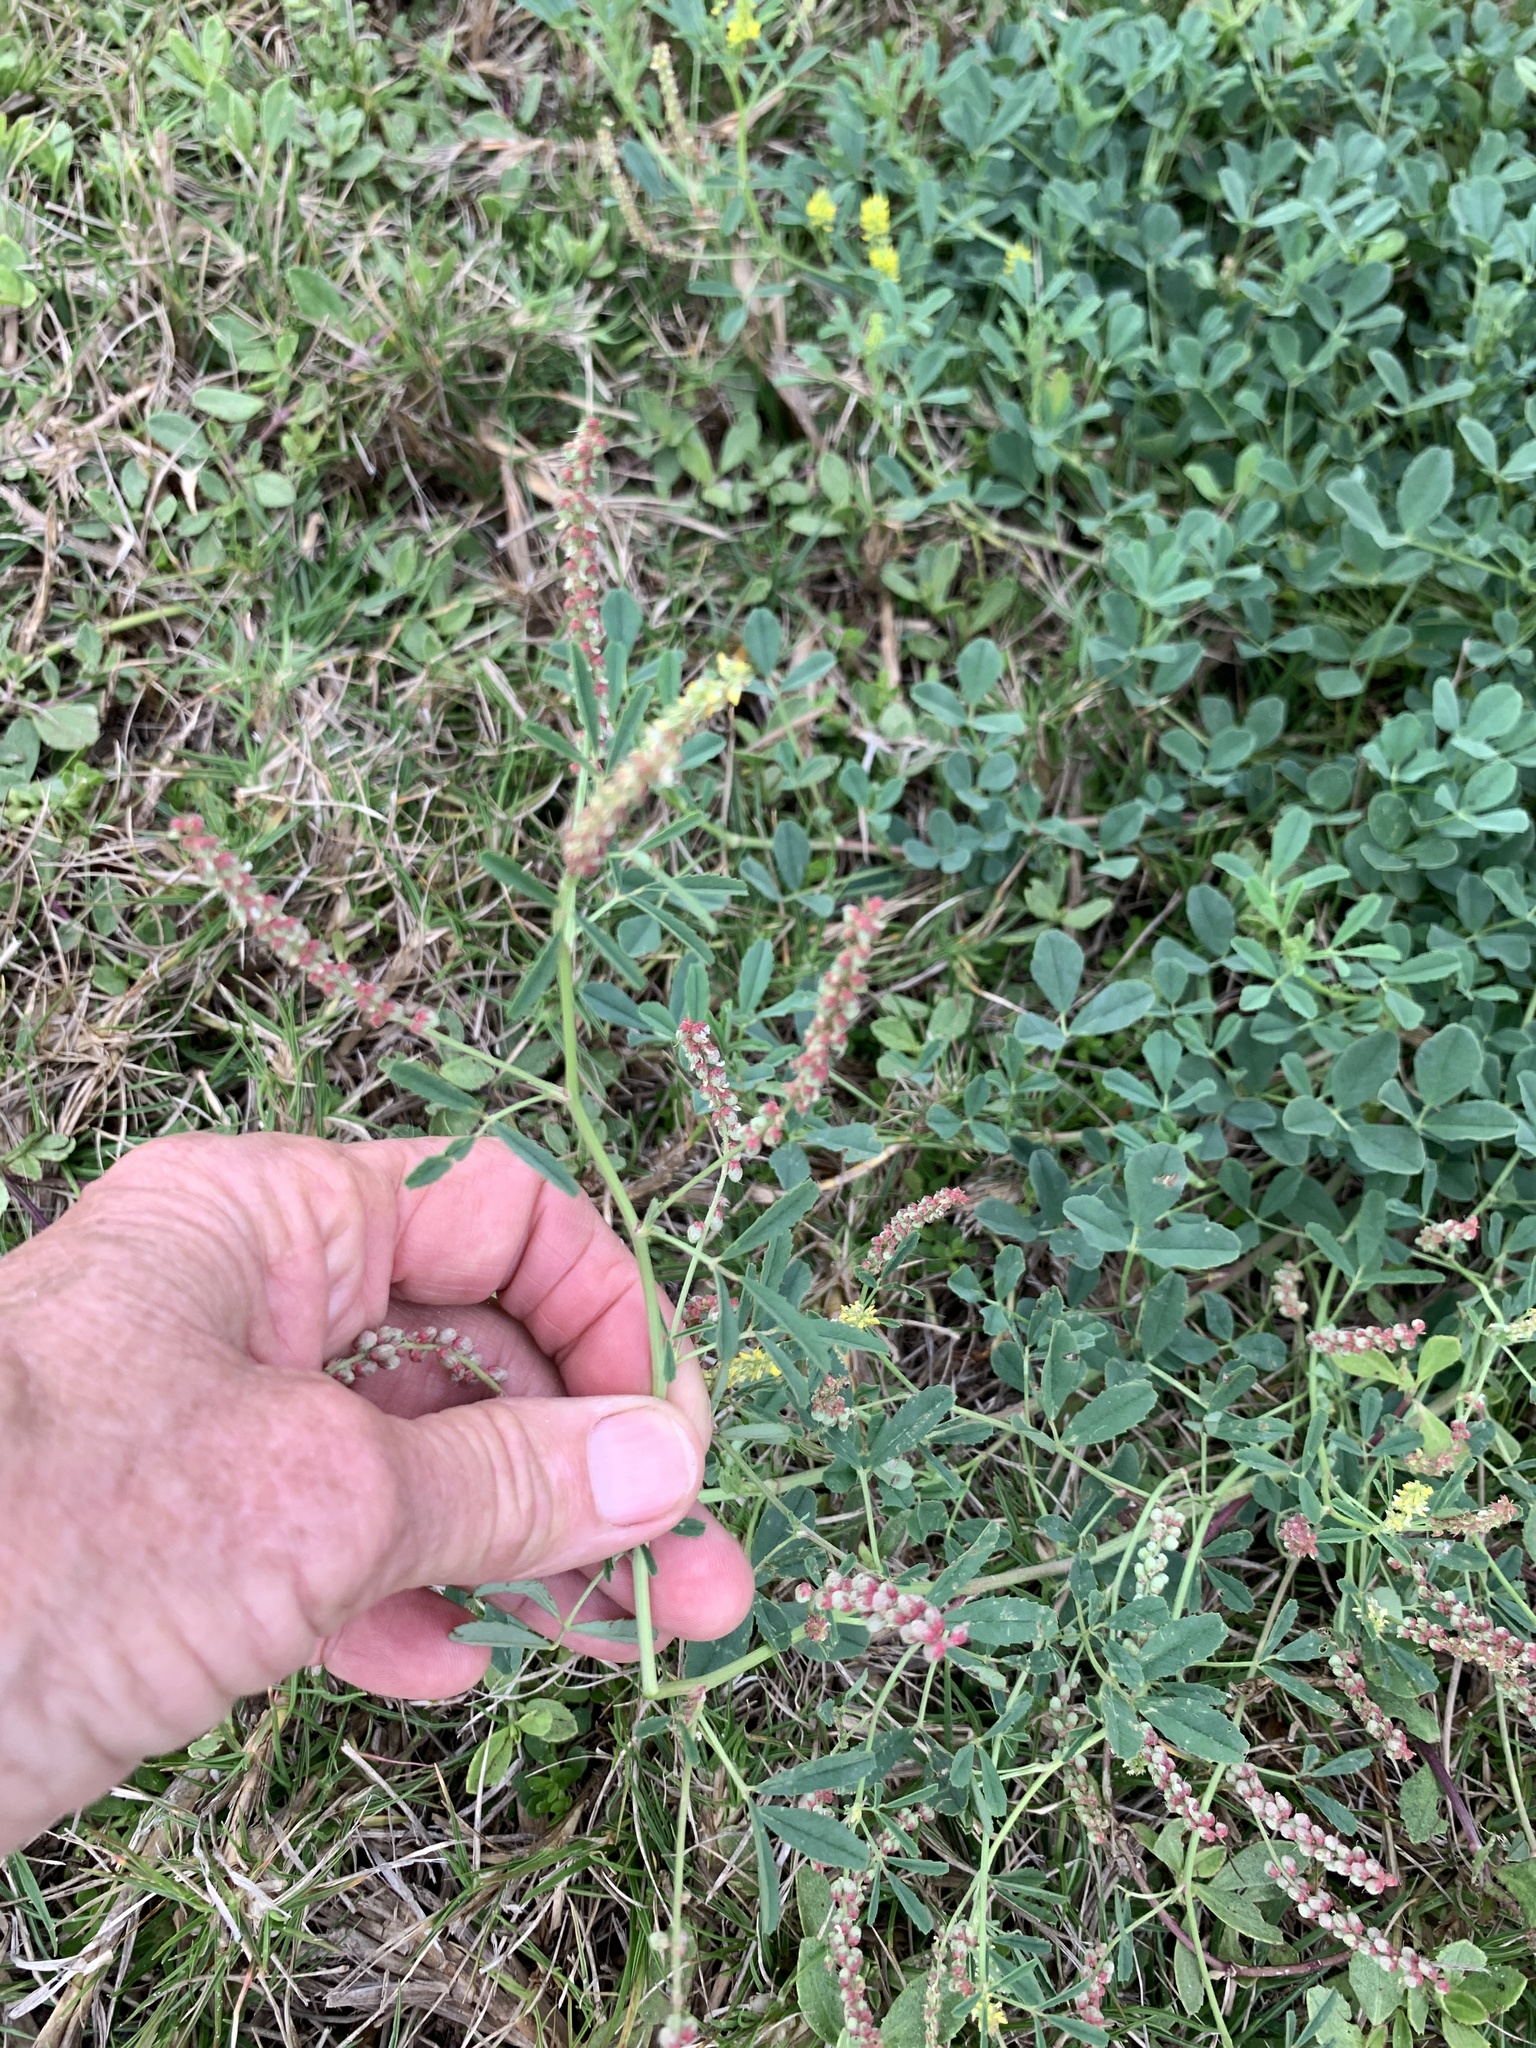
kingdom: Plantae
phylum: Tracheophyta
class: Magnoliopsida
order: Fabales
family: Fabaceae
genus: Melilotus
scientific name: Melilotus indicus
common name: Small melilot
